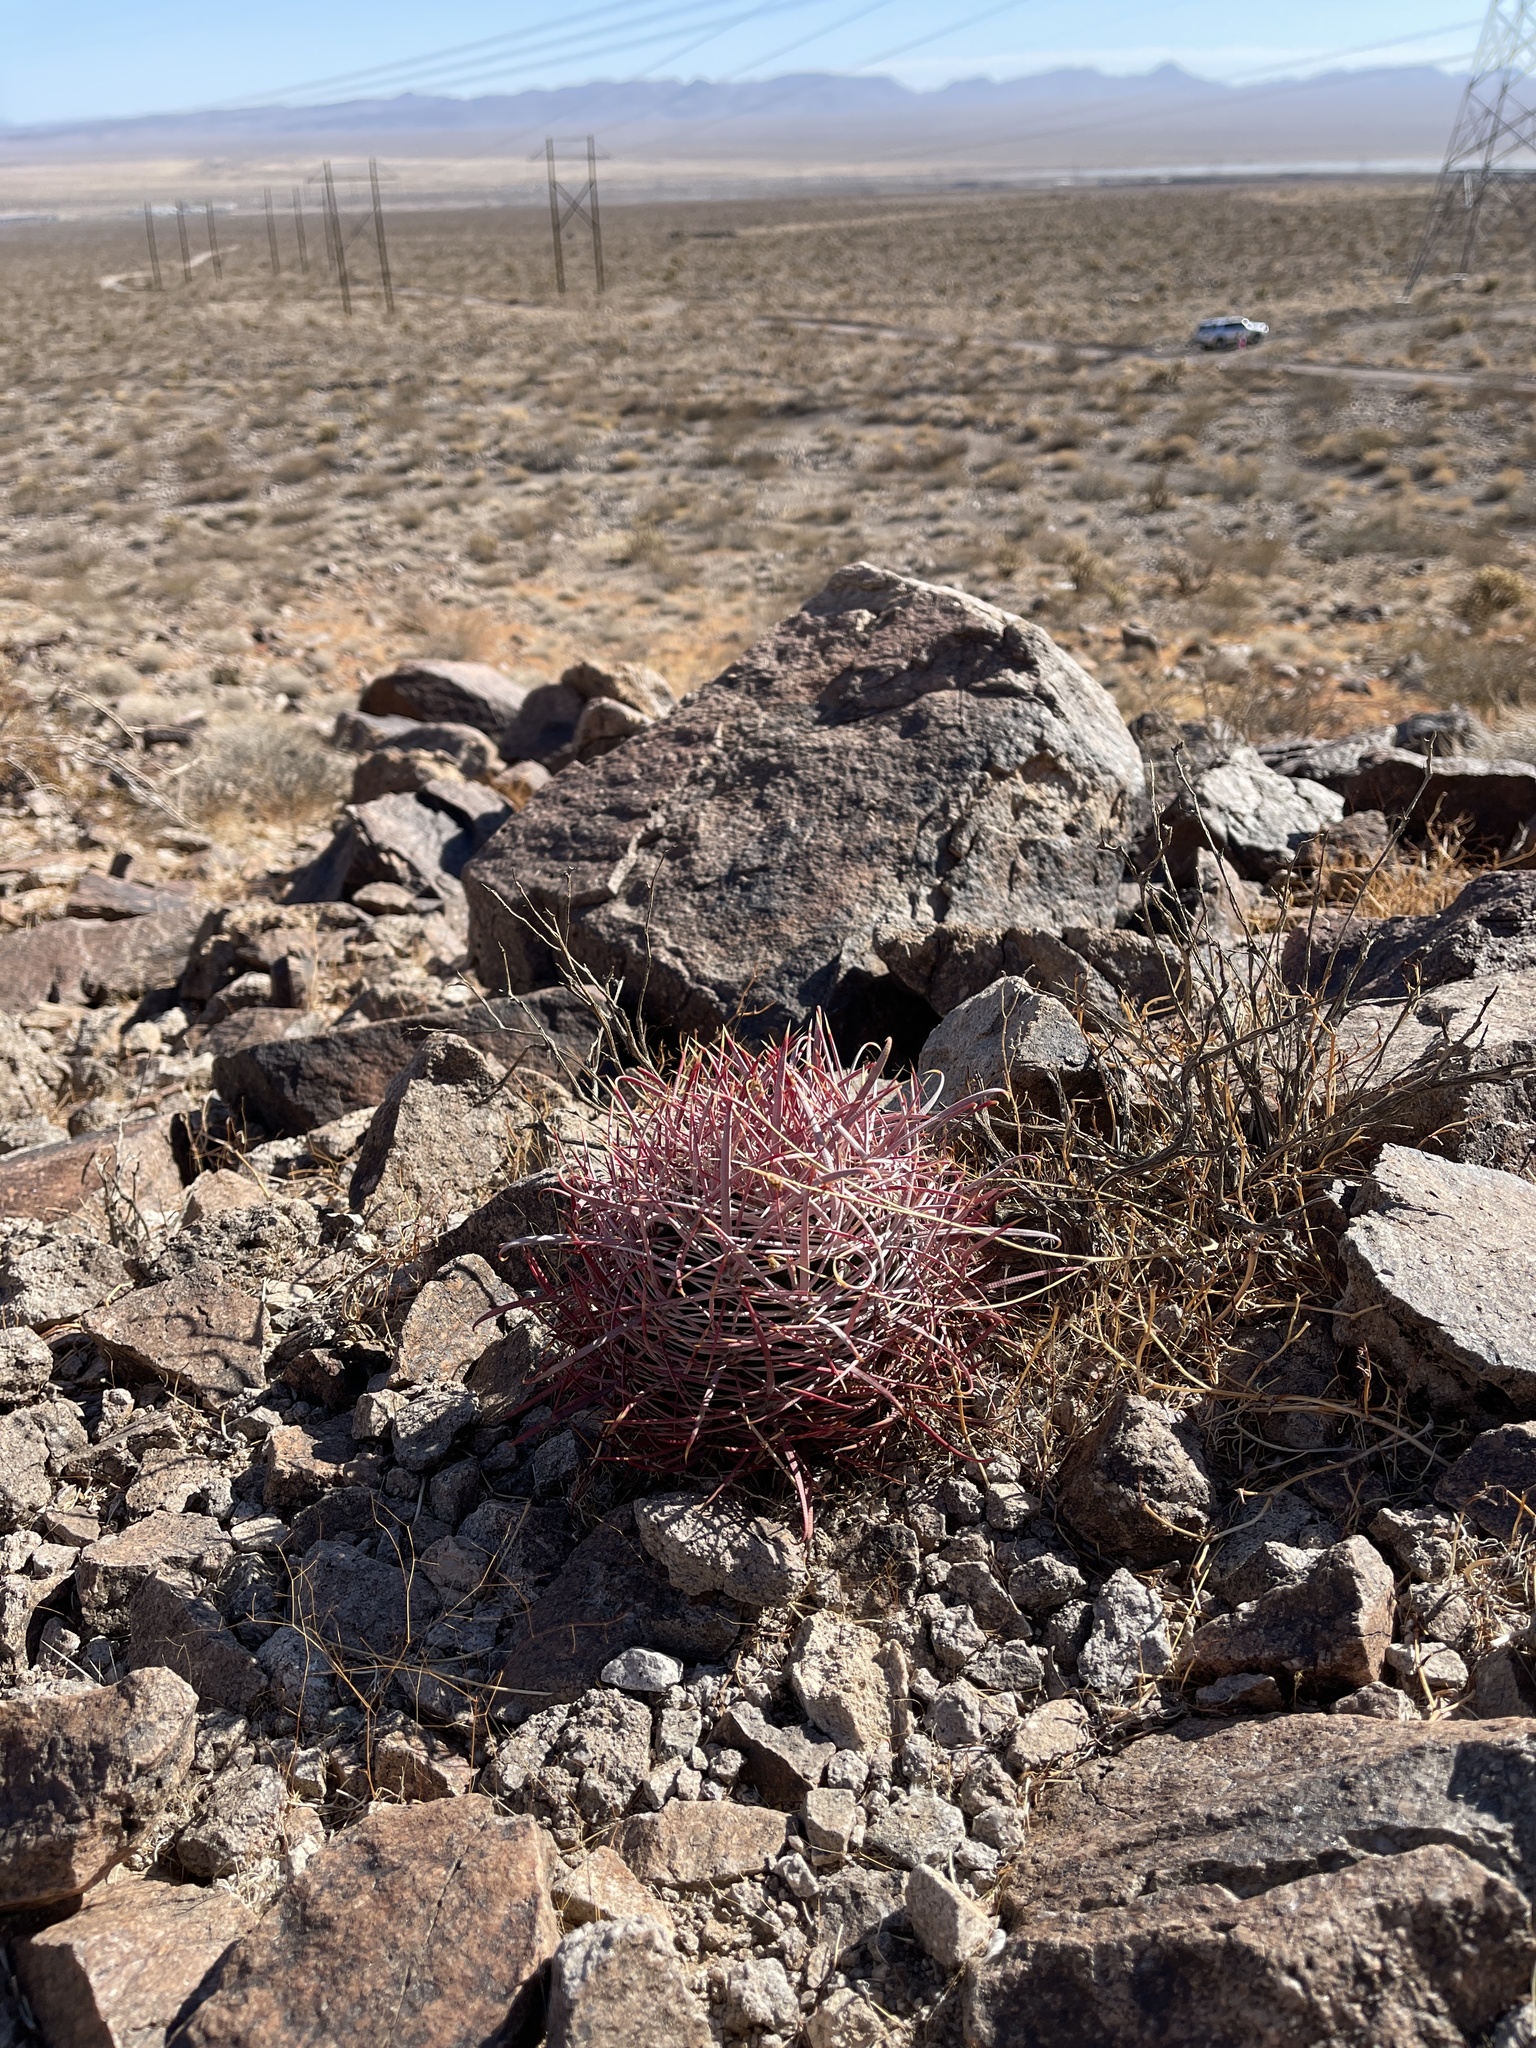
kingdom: Plantae
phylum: Tracheophyta
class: Magnoliopsida
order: Caryophyllales
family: Cactaceae
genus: Ferocactus
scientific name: Ferocactus cylindraceus
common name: California barrel cactus
